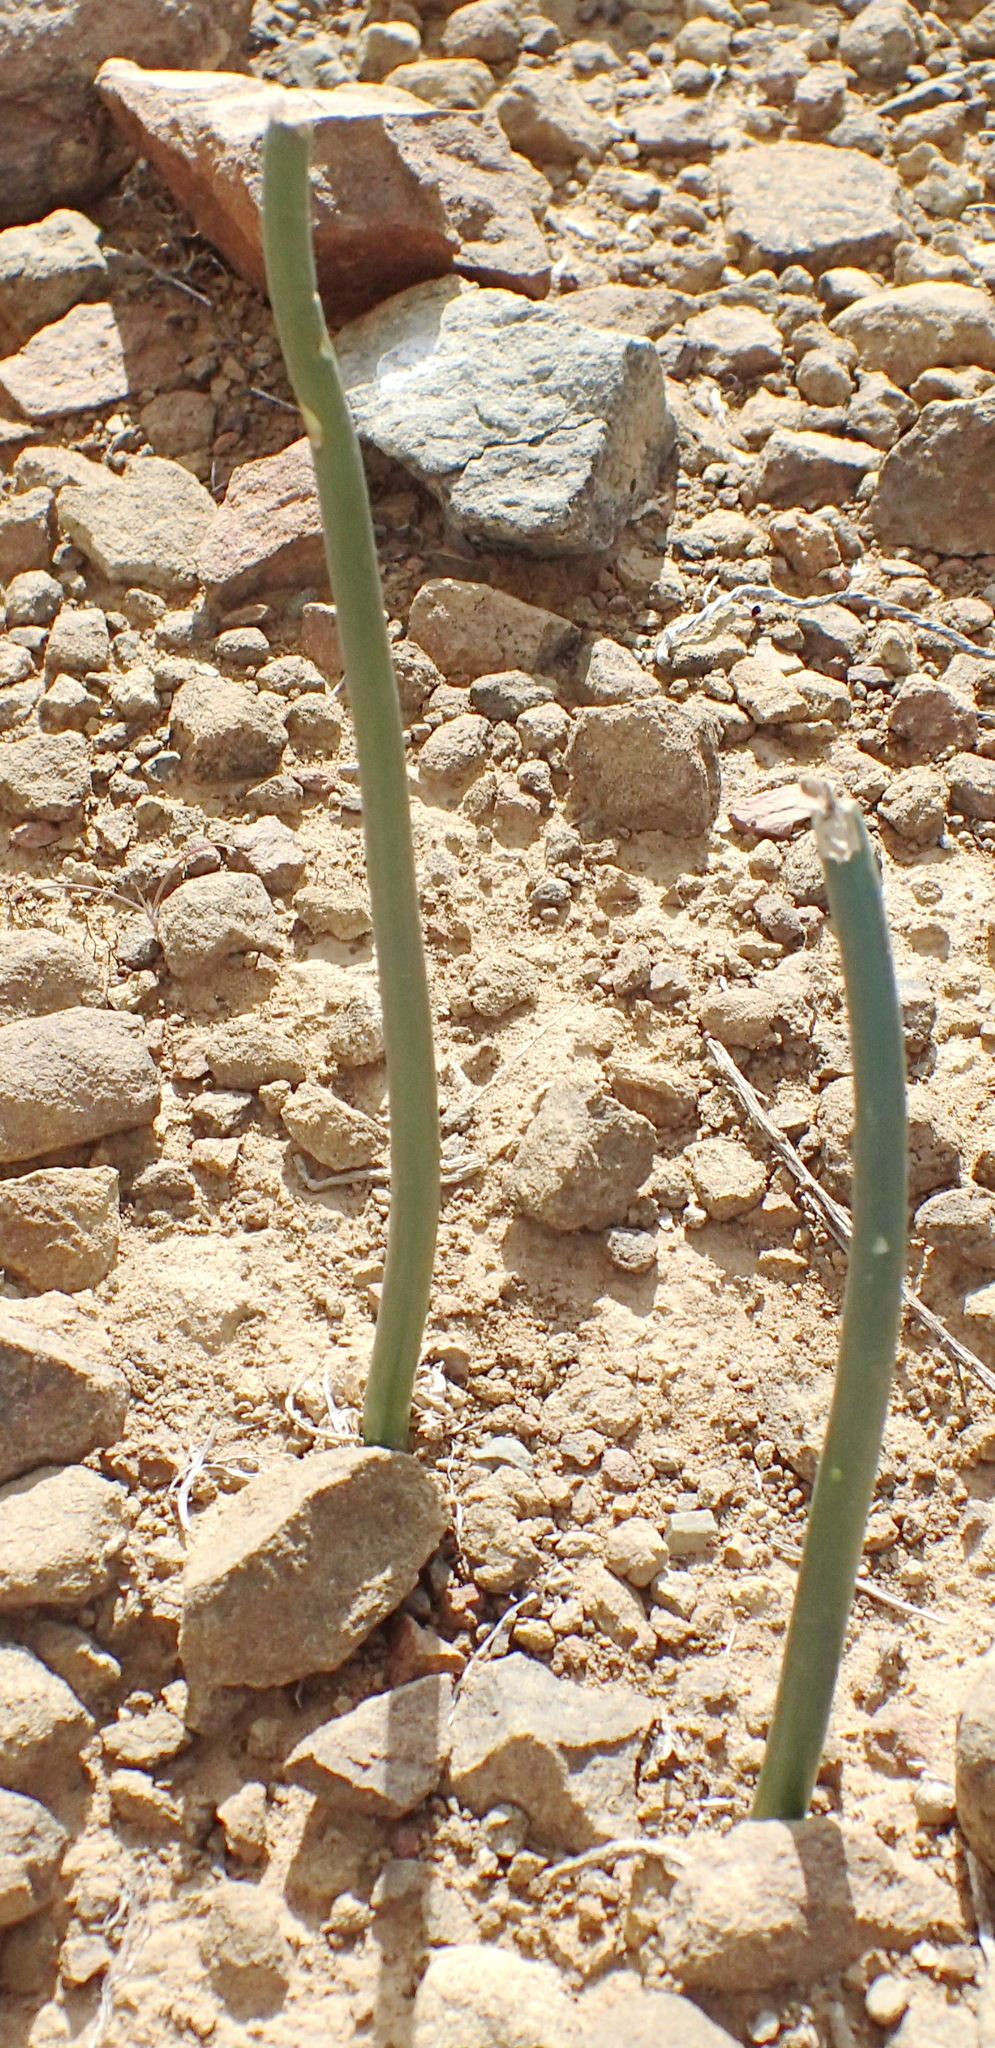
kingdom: Plantae
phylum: Tracheophyta
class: Liliopsida
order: Asparagales
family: Asparagaceae
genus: Drimia
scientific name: Drimia anomala
